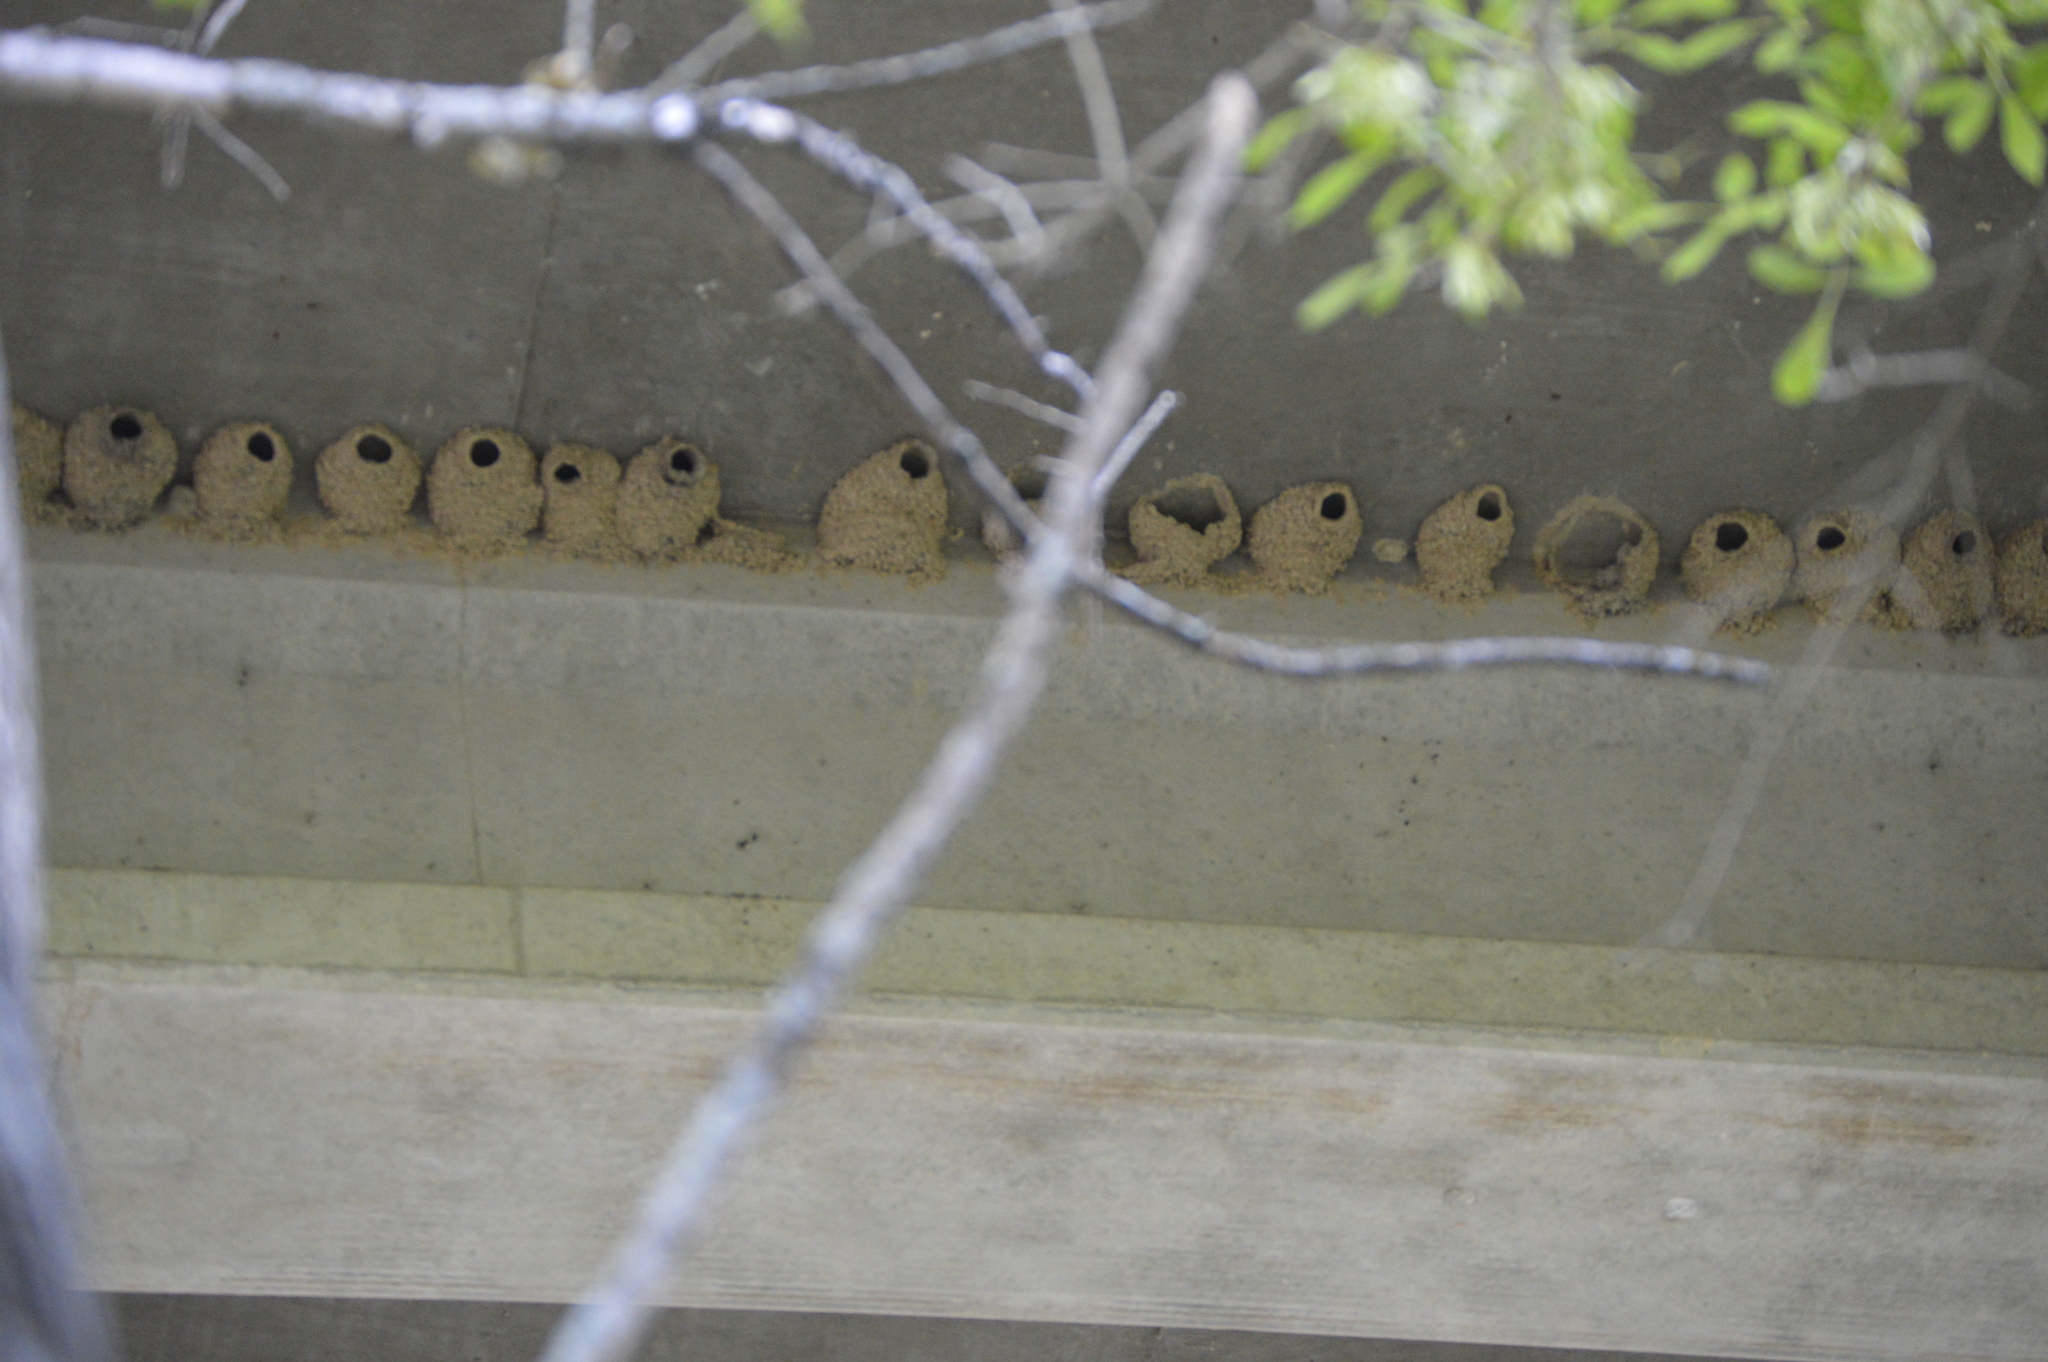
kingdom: Animalia
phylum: Chordata
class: Aves
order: Passeriformes
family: Hirundinidae
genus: Petrochelidon
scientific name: Petrochelidon pyrrhonota
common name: American cliff swallow
